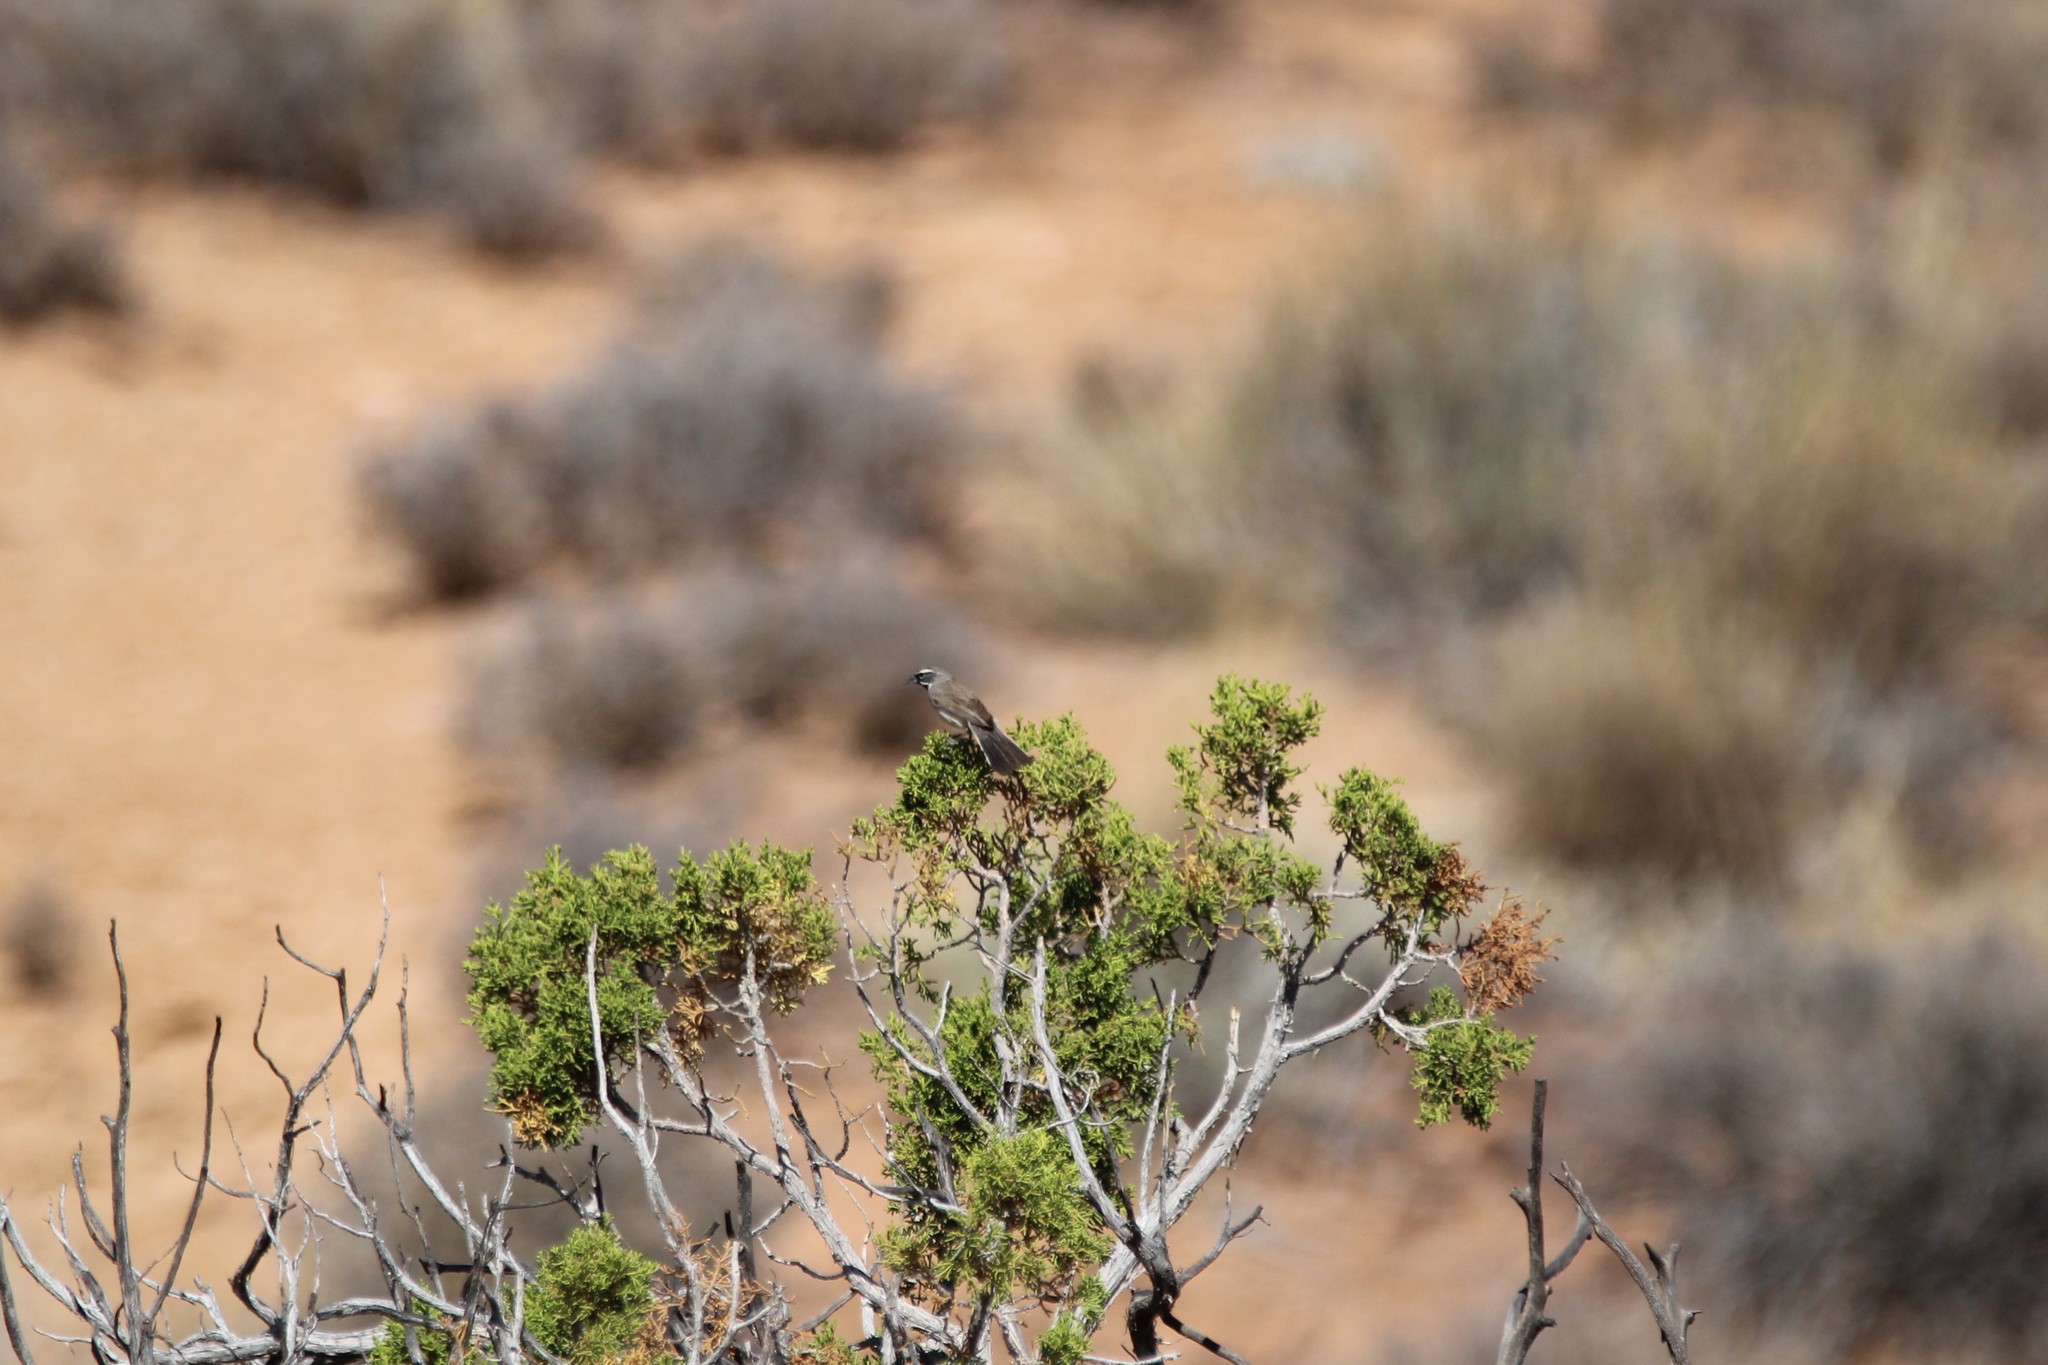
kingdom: Animalia
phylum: Chordata
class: Aves
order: Passeriformes
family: Passerellidae
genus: Amphispiza
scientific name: Amphispiza bilineata
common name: Black-throated sparrow
